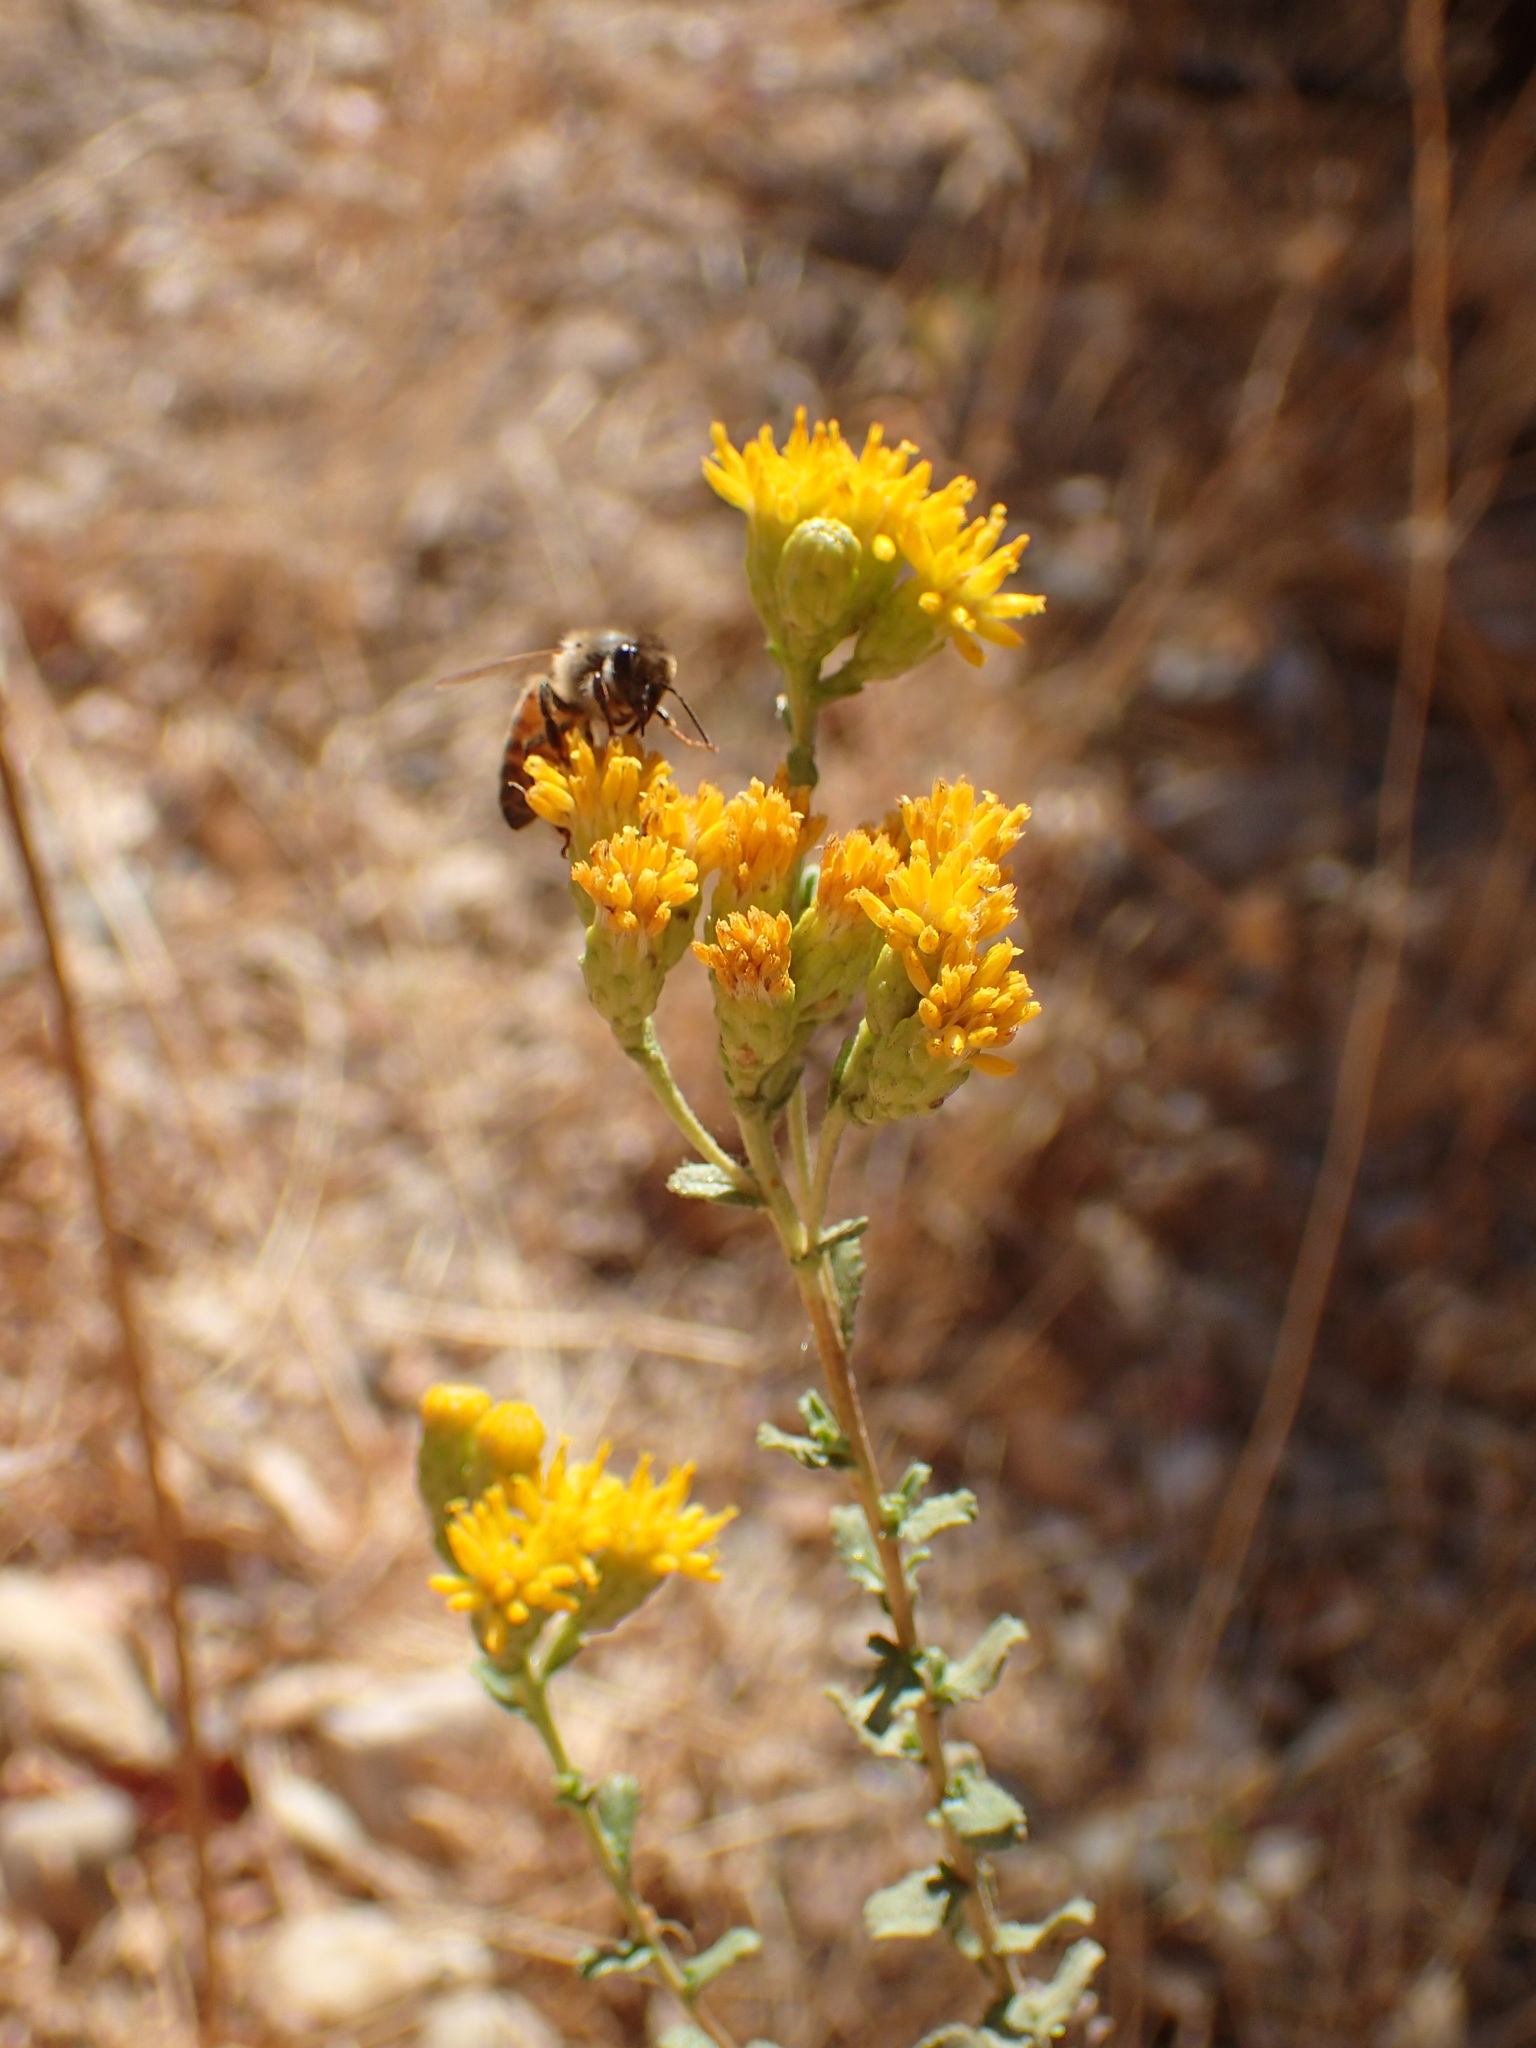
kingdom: Plantae
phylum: Tracheophyta
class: Magnoliopsida
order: Asterales
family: Asteraceae
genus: Isocoma
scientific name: Isocoma menziesii
